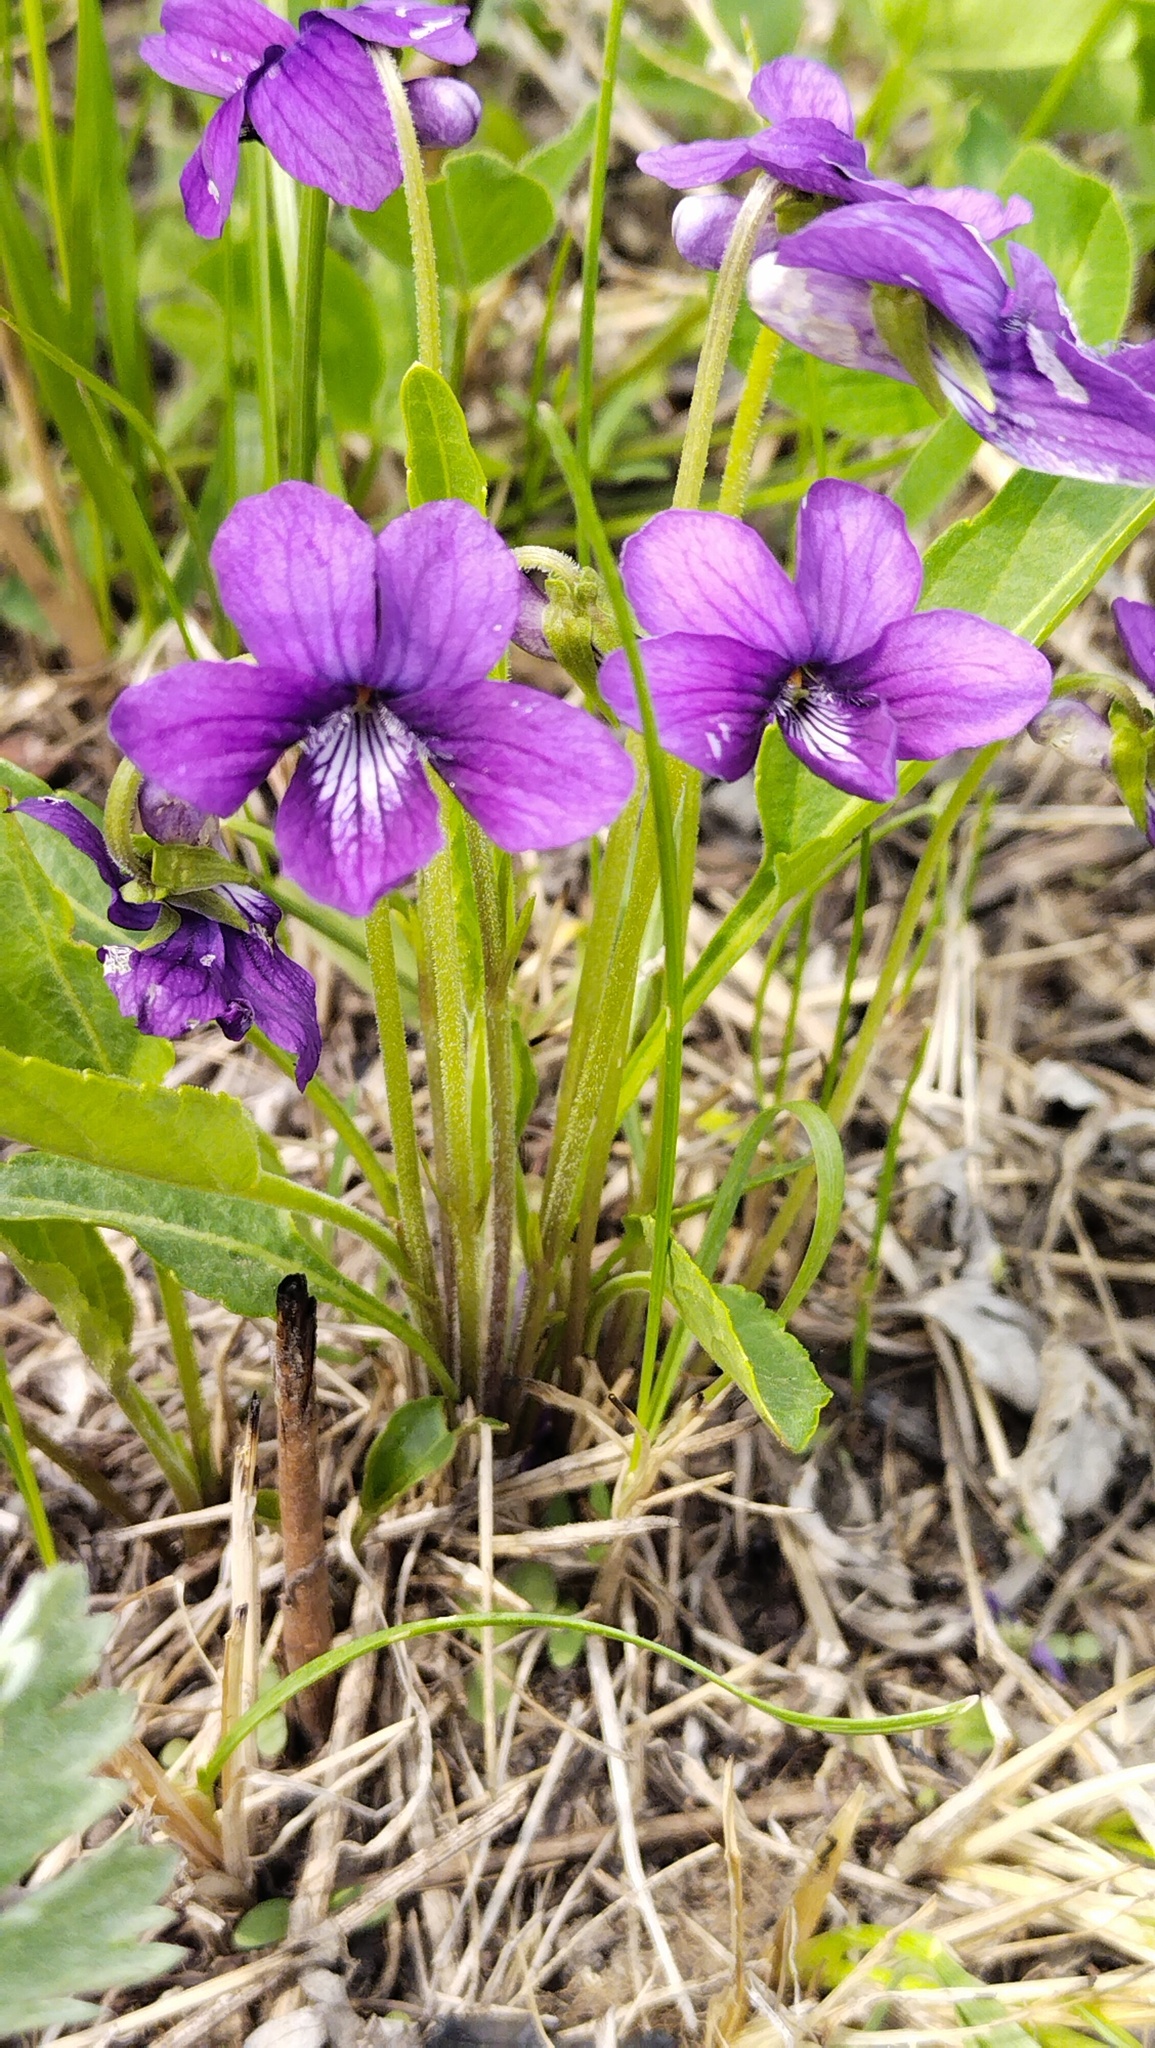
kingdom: Plantae
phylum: Tracheophyta
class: Magnoliopsida
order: Malpighiales
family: Violaceae
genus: Viola
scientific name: Viola mandshurica
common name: Manchuria violet
